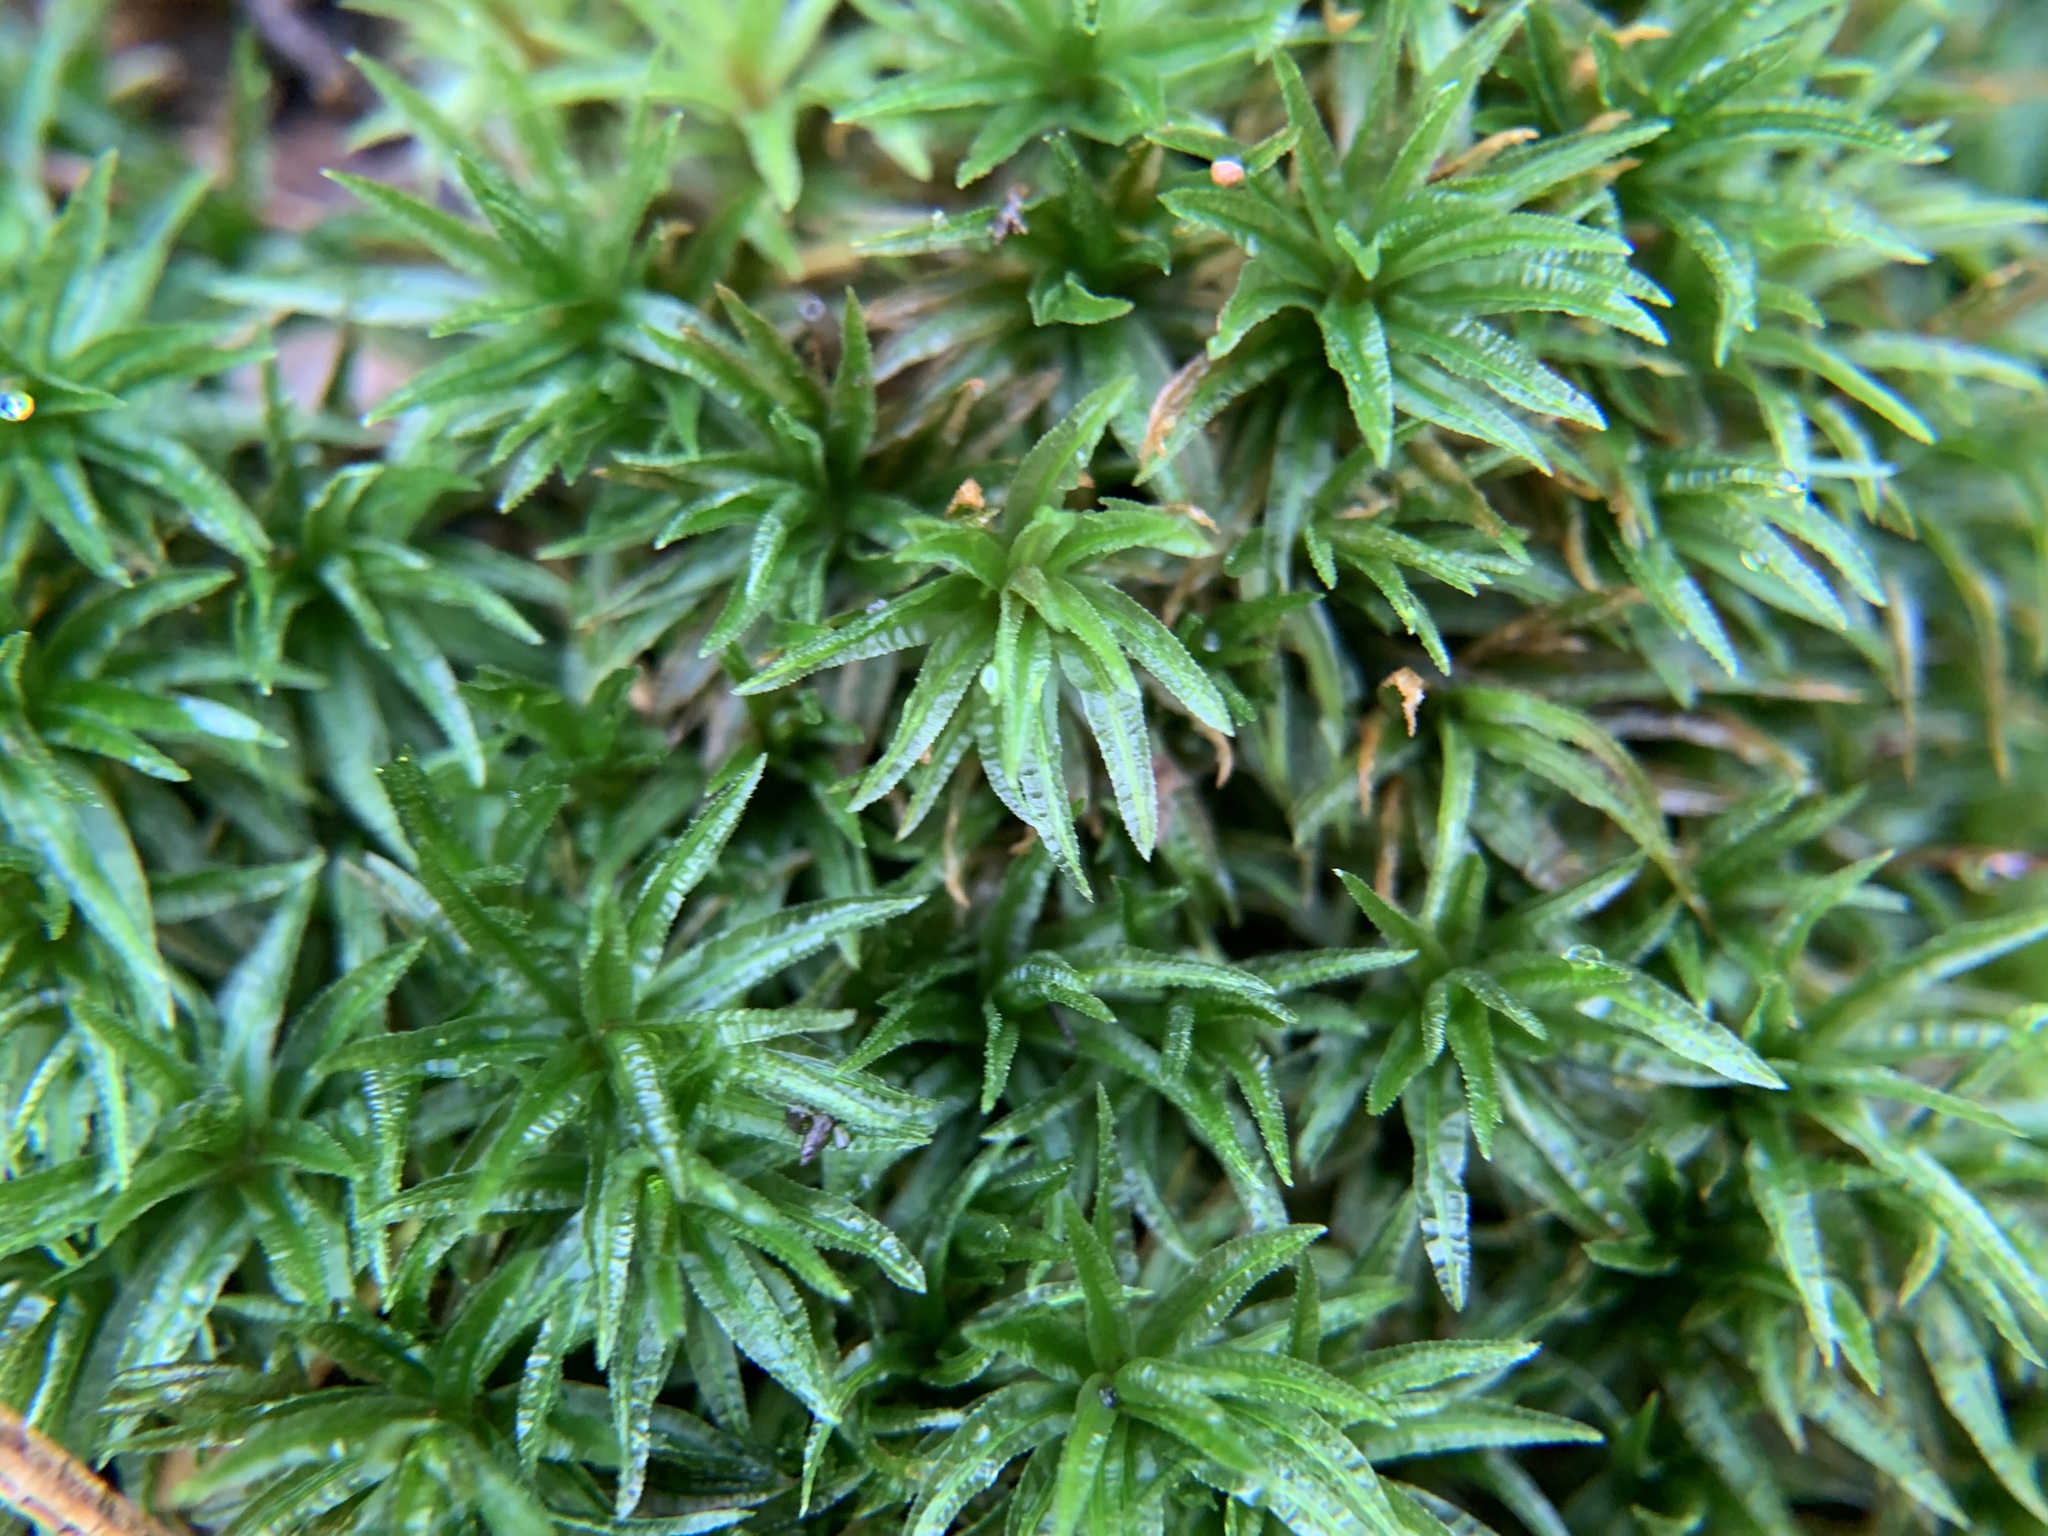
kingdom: Plantae
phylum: Bryophyta
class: Polytrichopsida
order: Polytrichales
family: Polytrichaceae
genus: Atrichum
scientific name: Atrichum undulatum
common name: Common smoothcap
